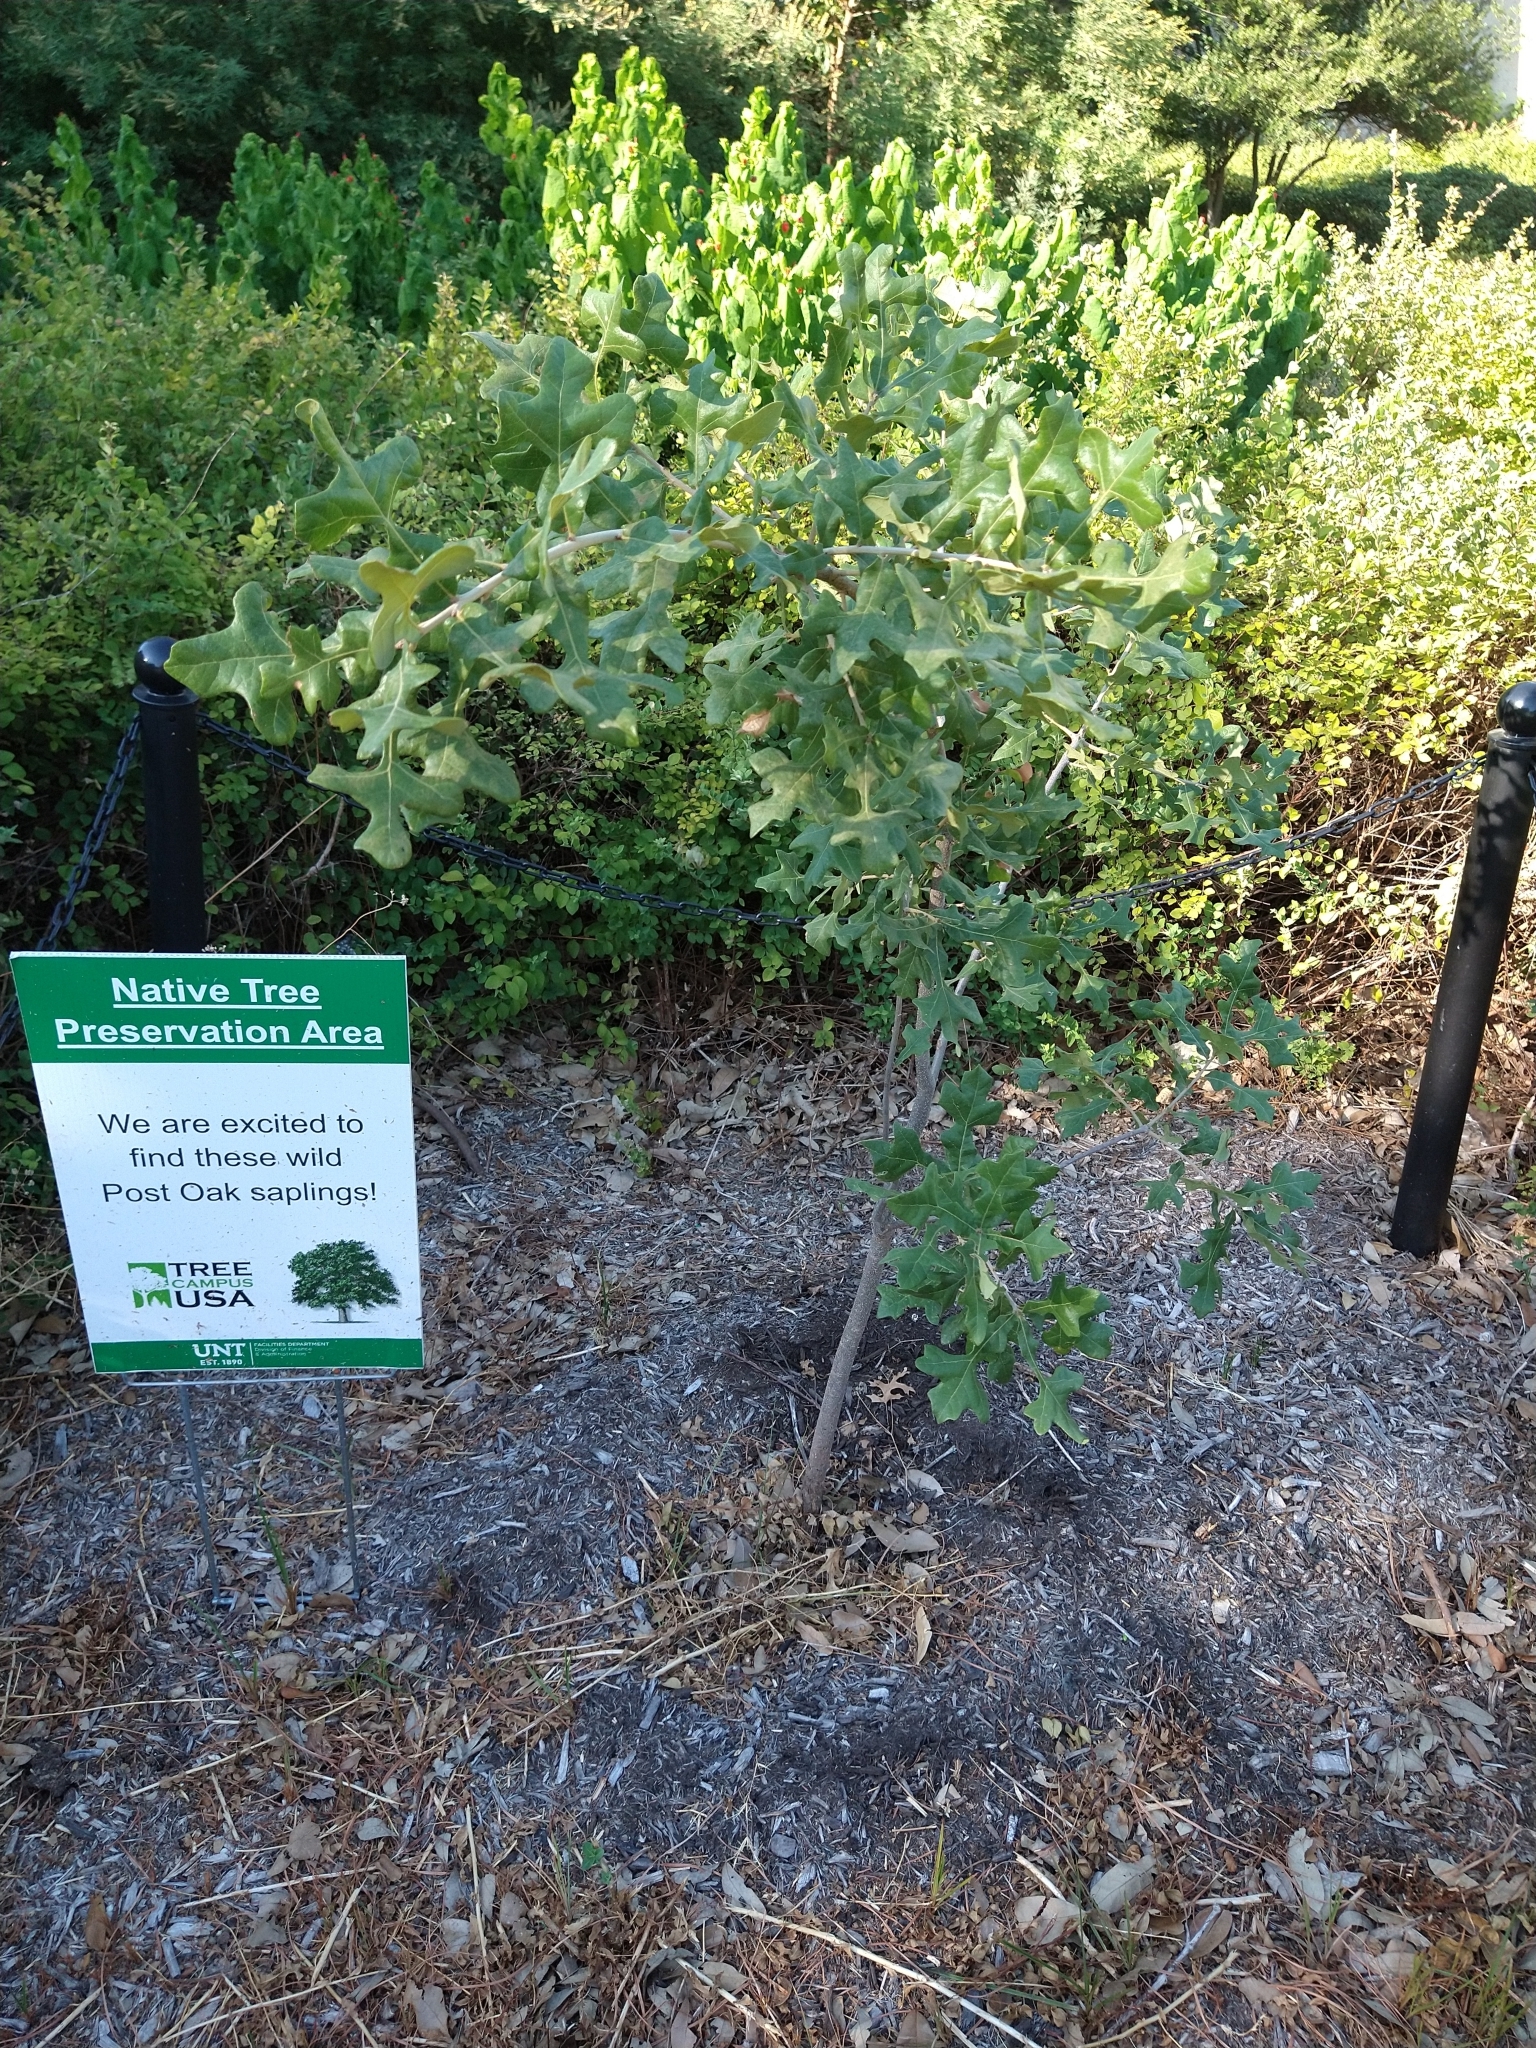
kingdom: Plantae
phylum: Tracheophyta
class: Magnoliopsida
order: Fagales
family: Fagaceae
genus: Quercus
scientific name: Quercus stellata
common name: Post oak
